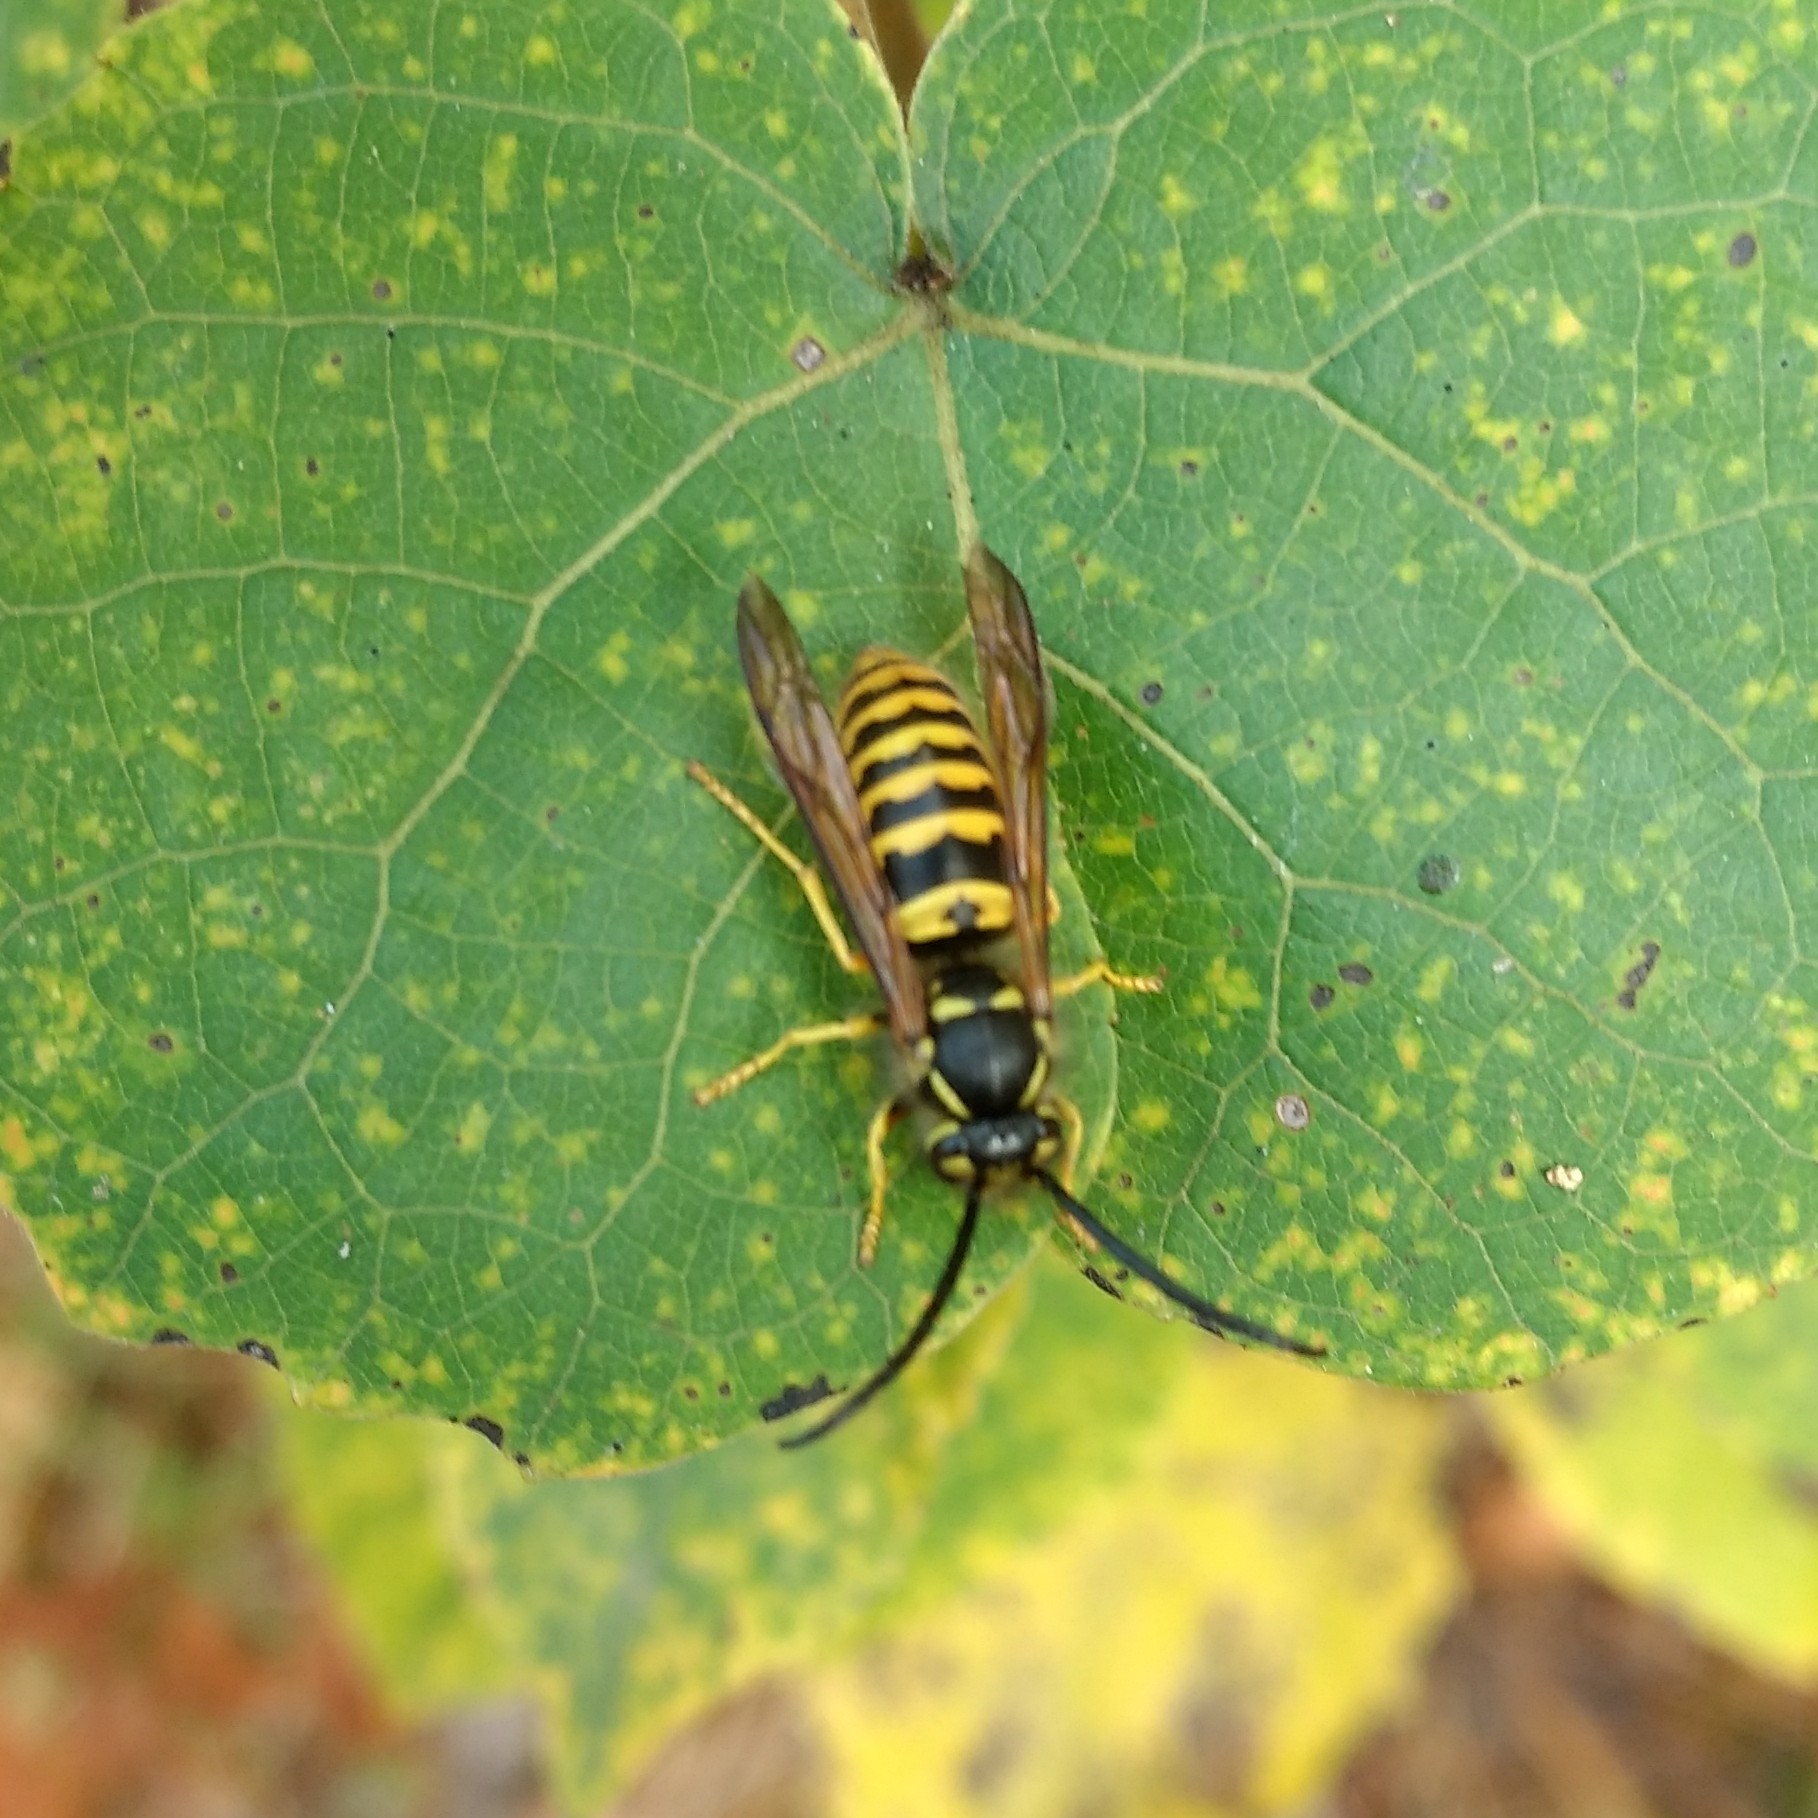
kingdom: Animalia
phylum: Arthropoda
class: Insecta
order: Hymenoptera
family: Vespidae
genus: Vespula
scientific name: Vespula germanica
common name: German wasp
